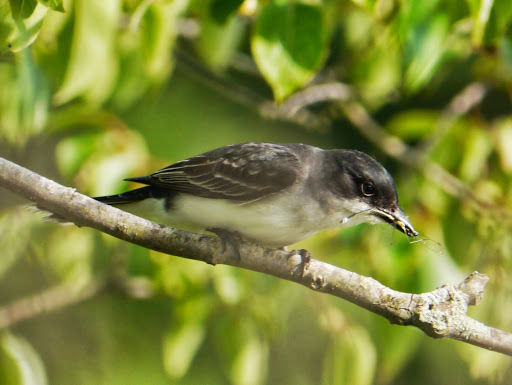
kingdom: Animalia
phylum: Chordata
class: Aves
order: Passeriformes
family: Tyrannidae
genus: Tyrannus
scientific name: Tyrannus tyrannus
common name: Eastern kingbird
